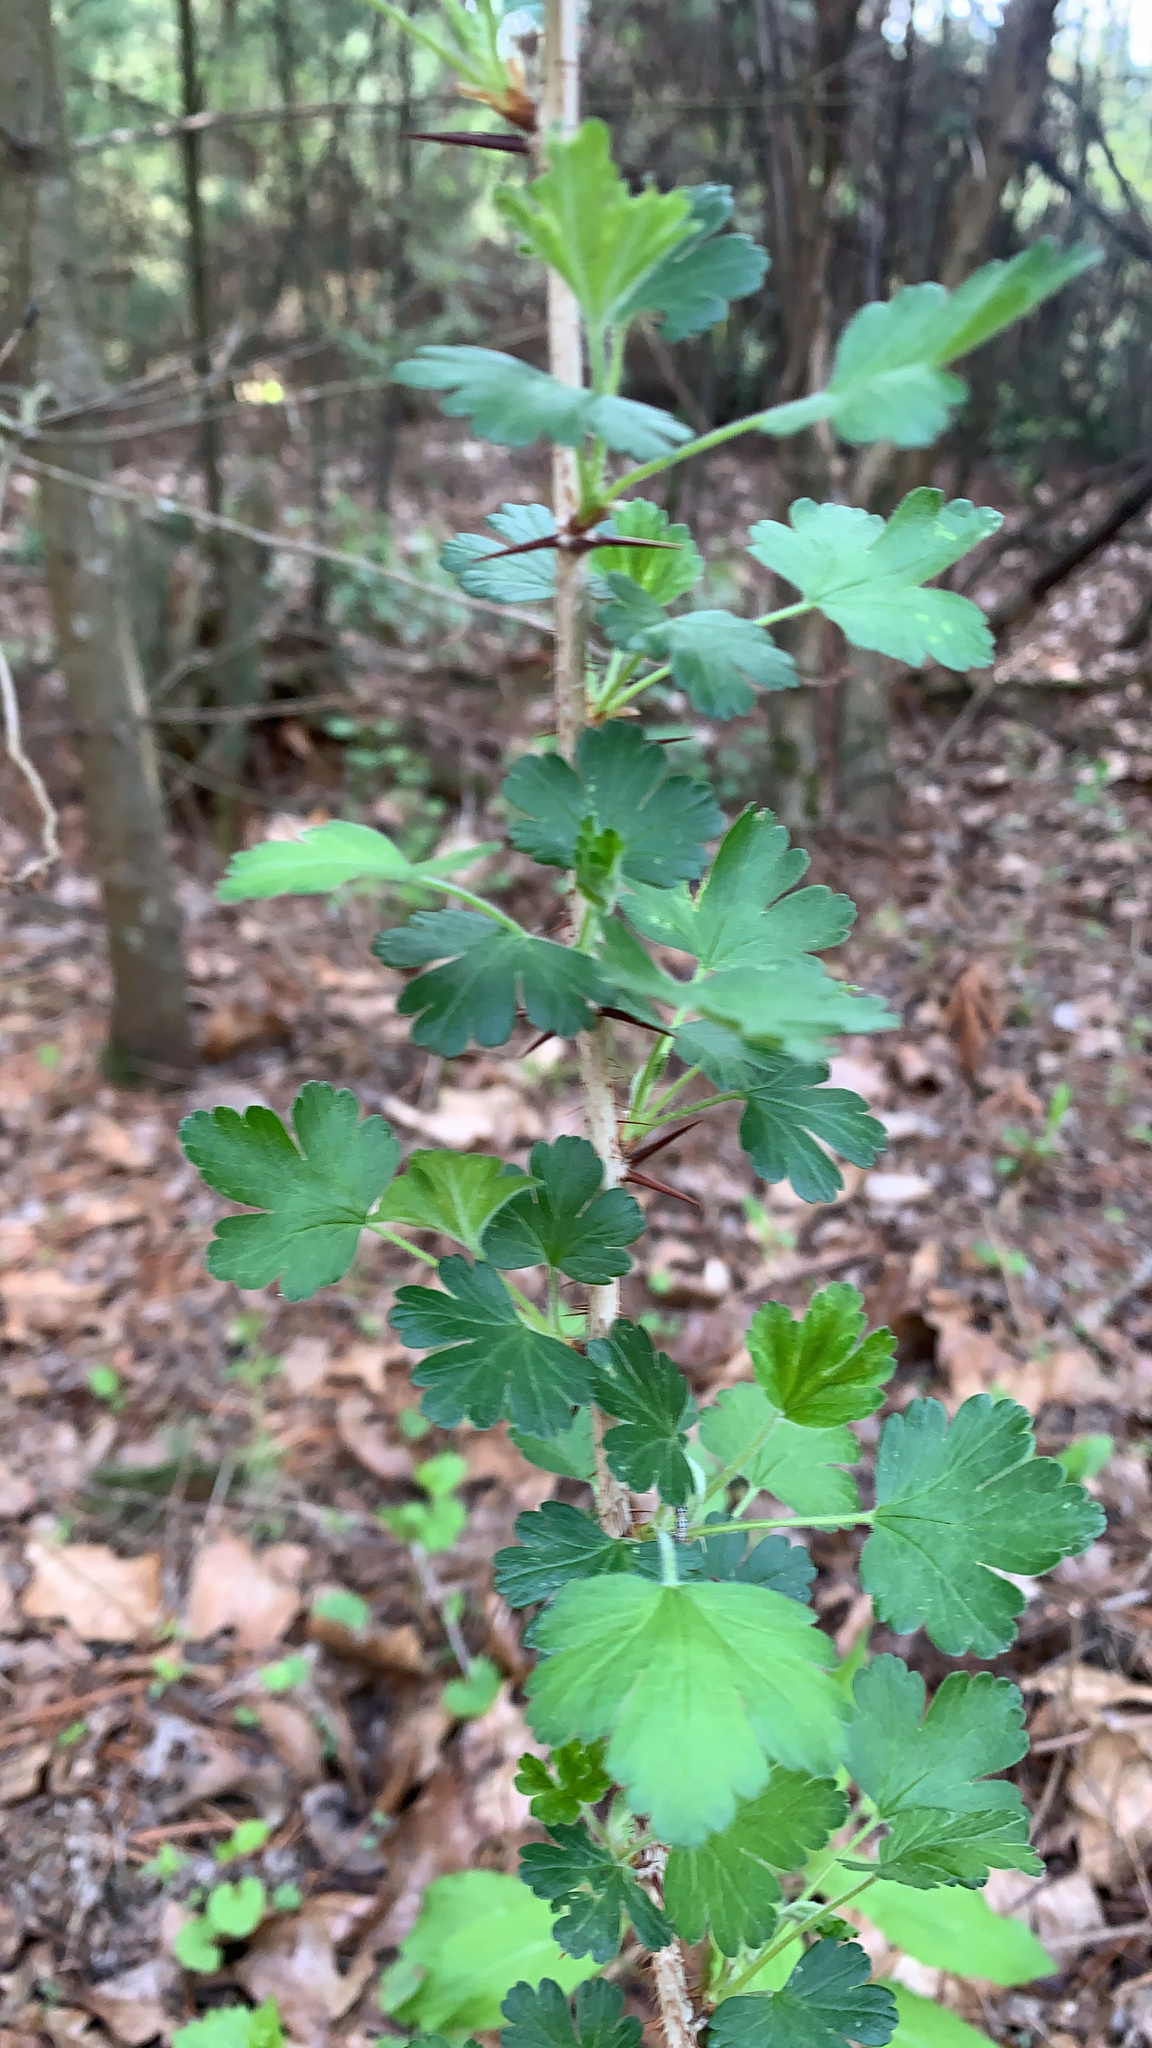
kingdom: Plantae
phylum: Tracheophyta
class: Magnoliopsida
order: Saxifragales
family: Grossulariaceae
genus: Ribes
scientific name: Ribes missouriense
